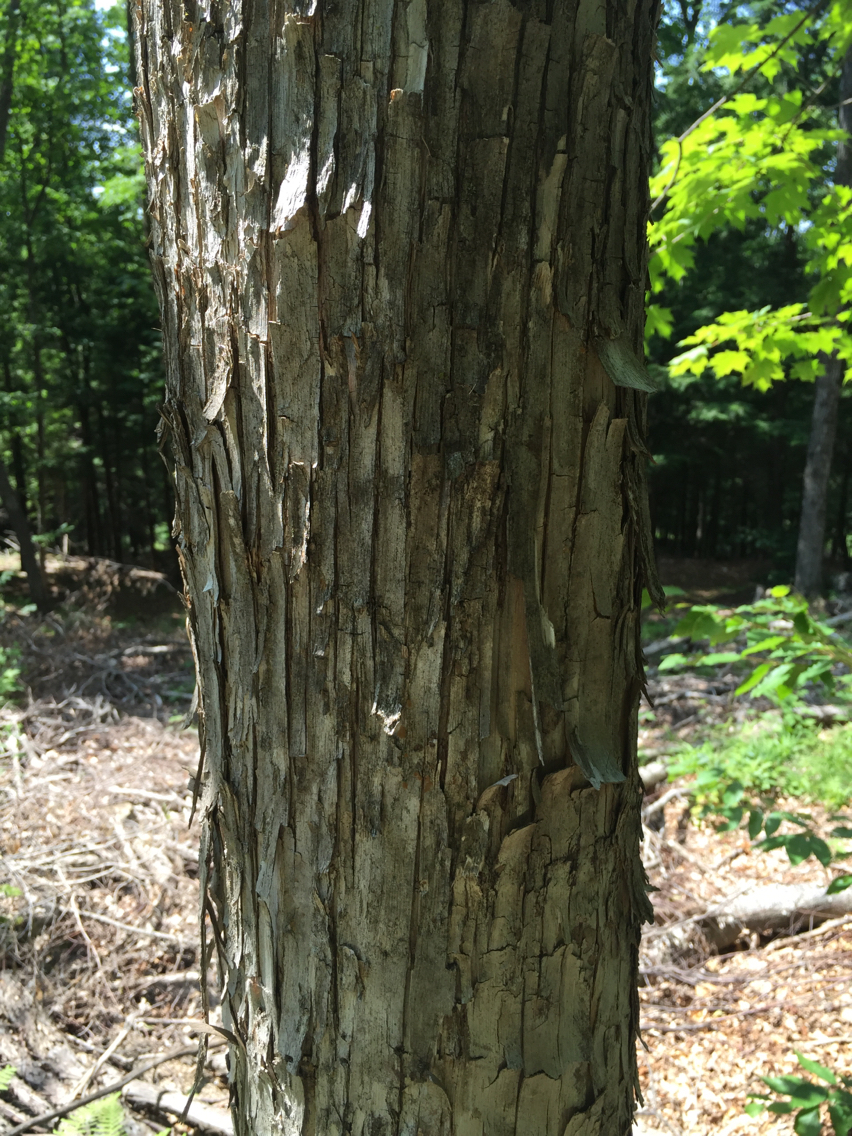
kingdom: Plantae
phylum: Tracheophyta
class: Magnoliopsida
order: Fagales
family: Betulaceae
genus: Ostrya
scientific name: Ostrya virginiana
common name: Ironwood
